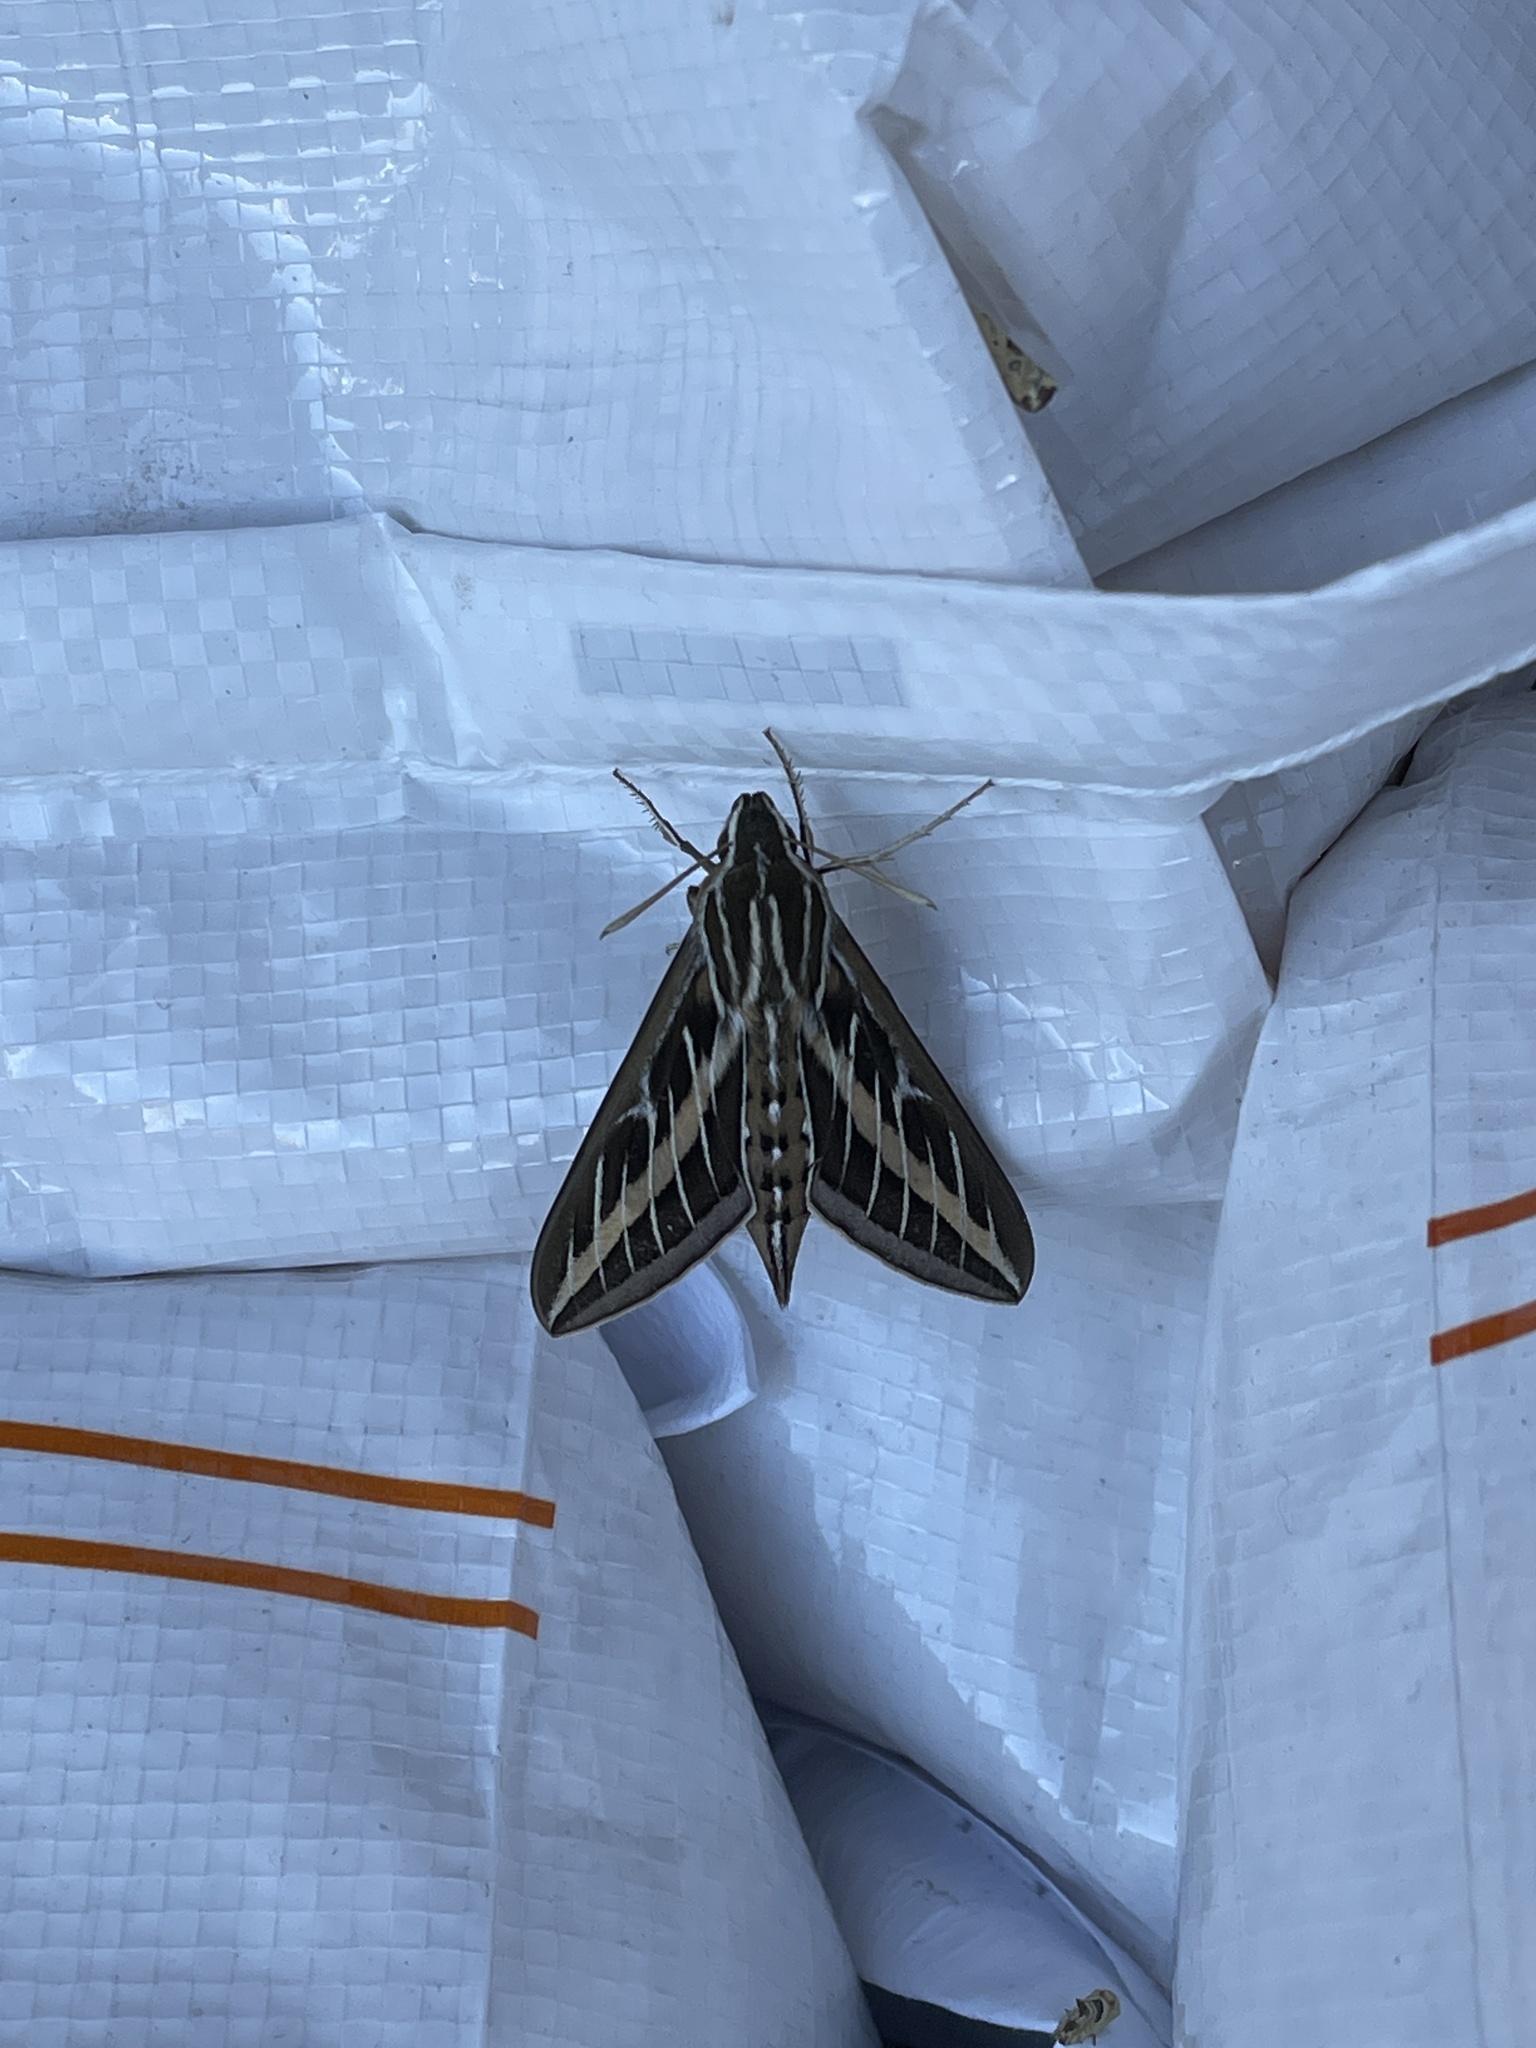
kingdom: Animalia
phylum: Arthropoda
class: Insecta
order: Lepidoptera
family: Sphingidae
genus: Hyles
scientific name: Hyles lineata
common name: White-lined sphinx
